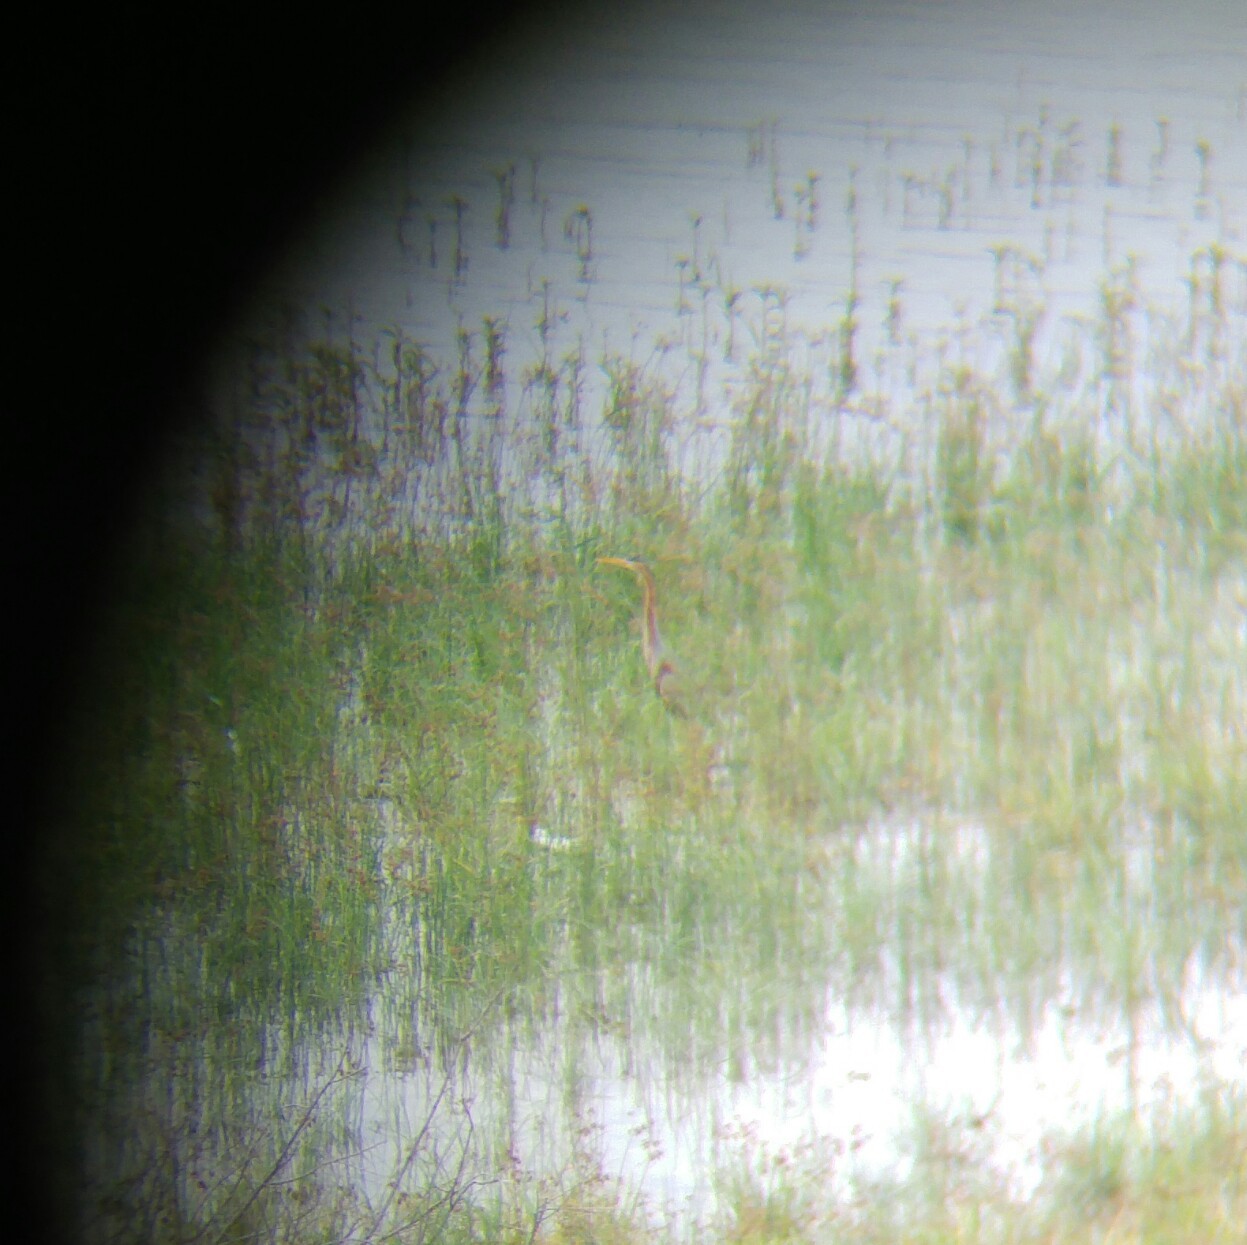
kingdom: Animalia
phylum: Chordata
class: Aves
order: Pelecaniformes
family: Ardeidae
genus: Ardea
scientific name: Ardea purpurea
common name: Purple heron
